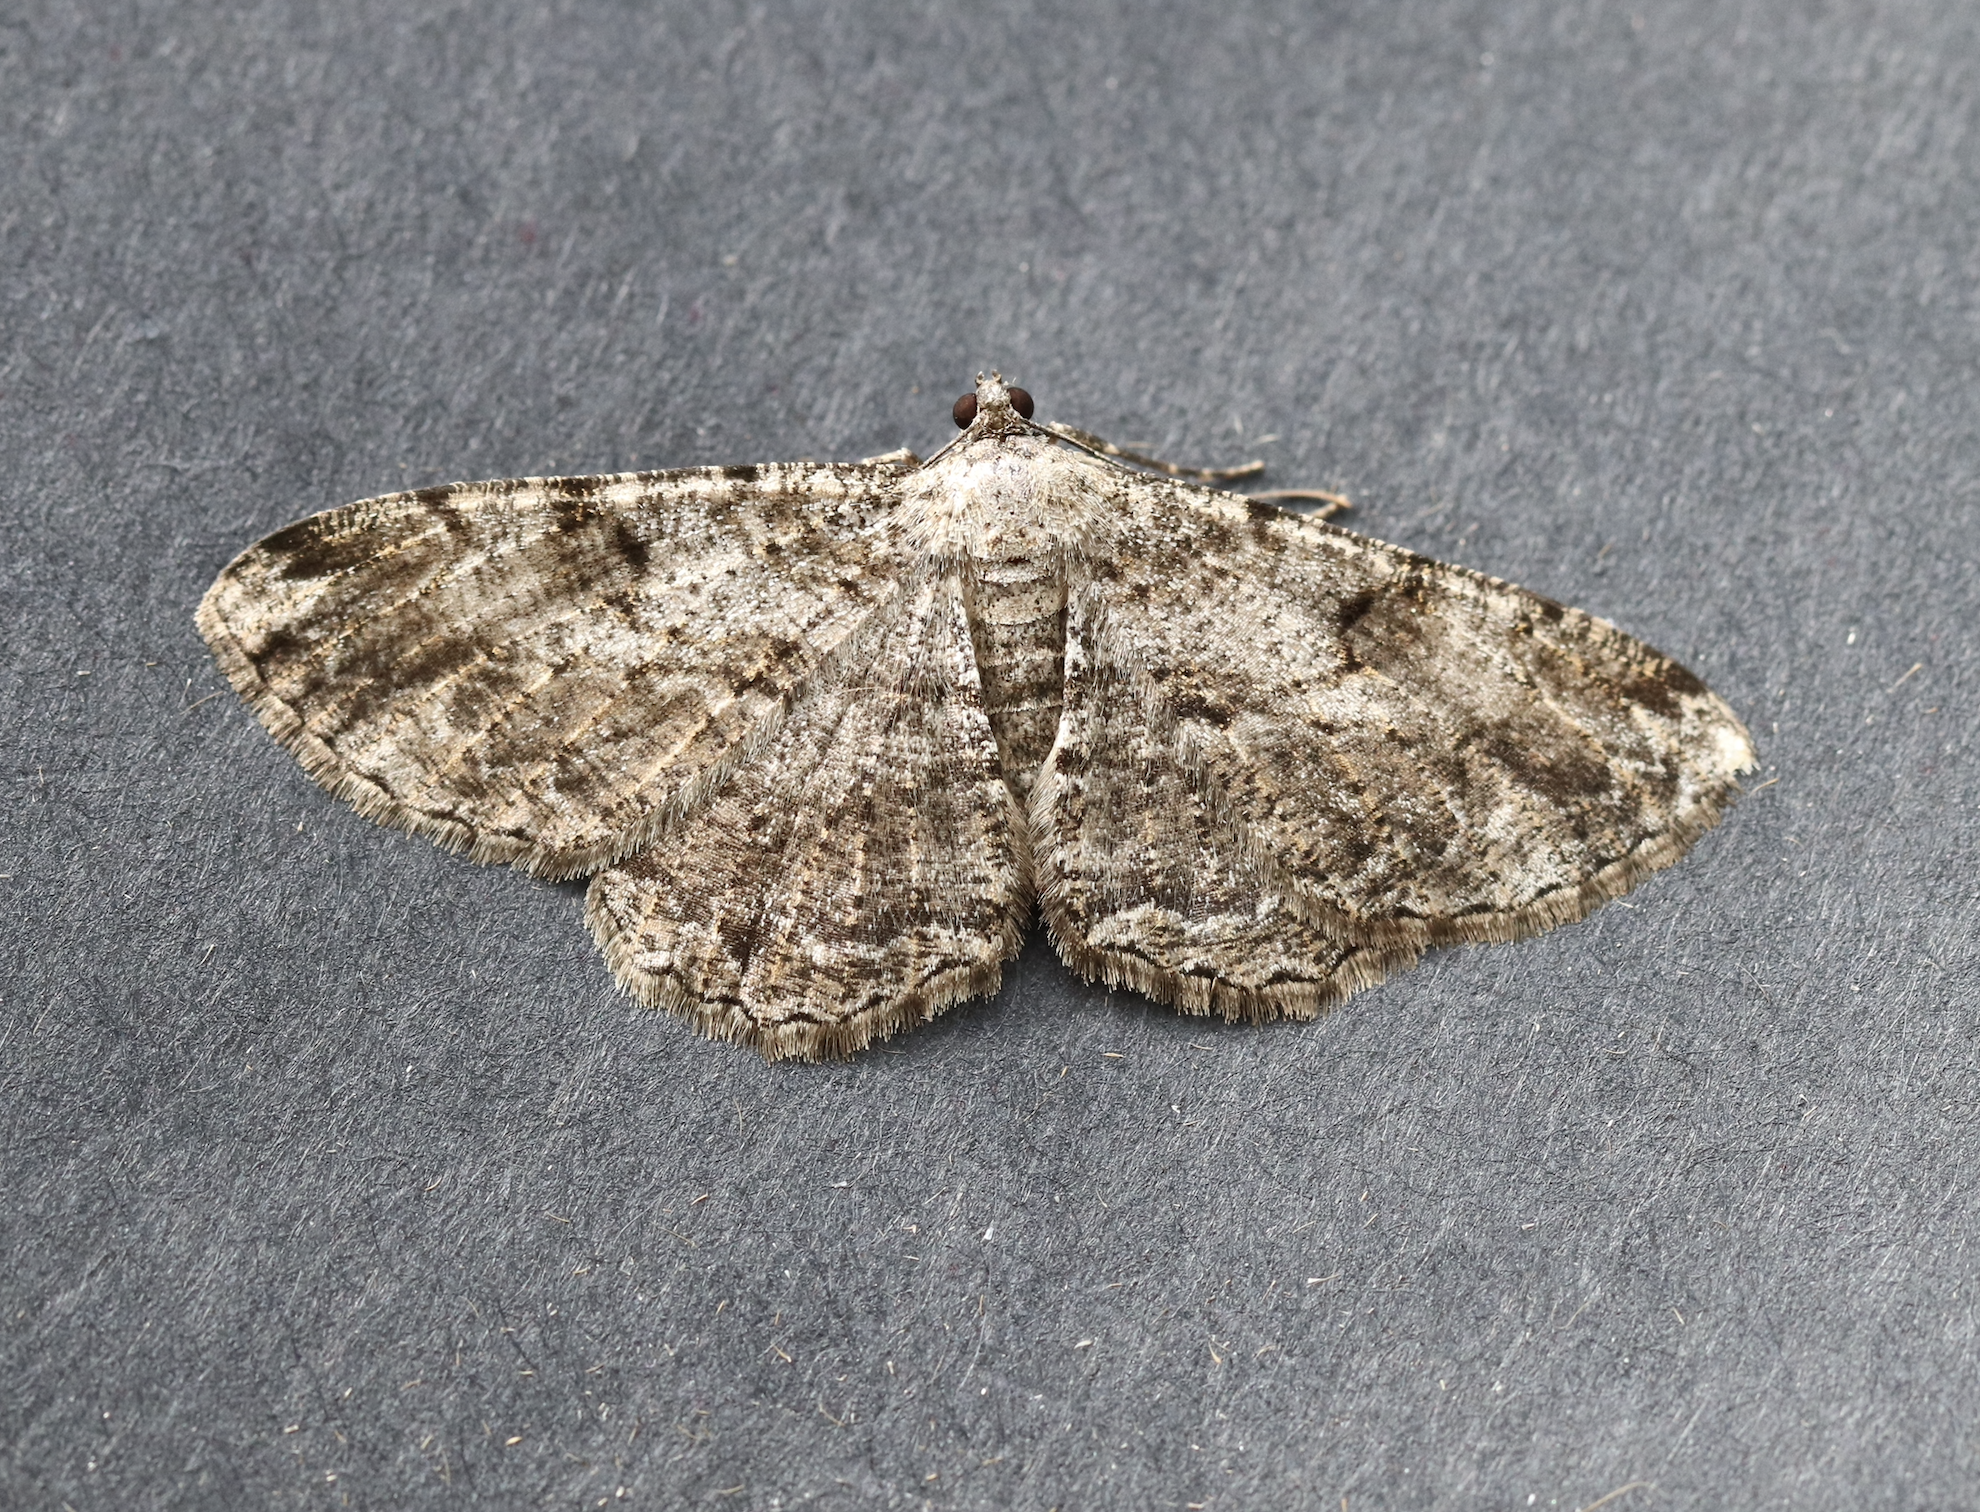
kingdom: Animalia
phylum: Arthropoda
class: Insecta
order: Lepidoptera
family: Geometridae
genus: Peribatodes
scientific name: Peribatodes rhomboidaria
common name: Willow beauty
